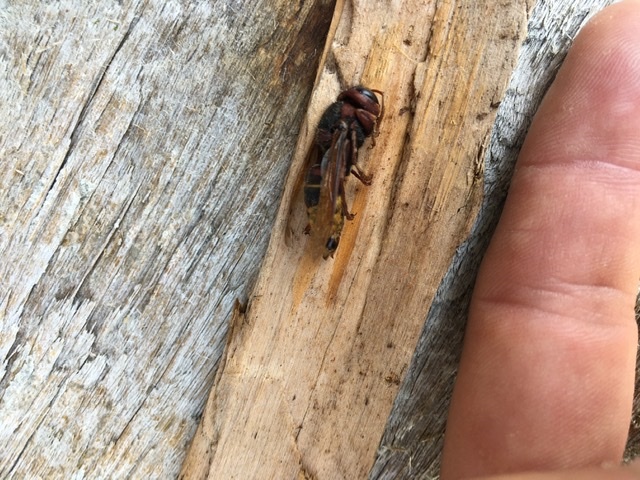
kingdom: Animalia
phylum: Arthropoda
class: Insecta
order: Hymenoptera
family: Vespidae
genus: Vespa
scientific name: Vespa crabro
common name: Hornet
